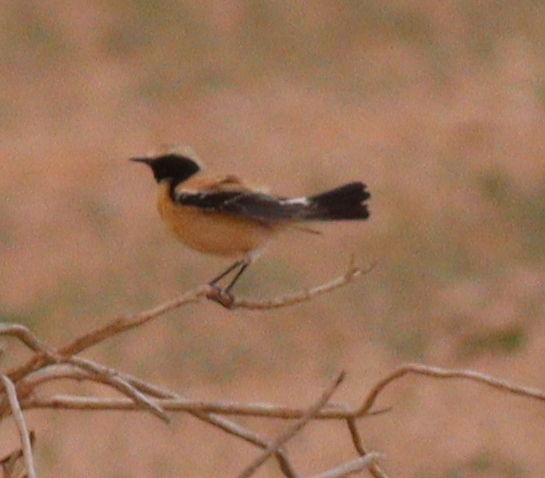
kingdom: Animalia
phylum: Chordata
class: Aves
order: Passeriformes
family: Muscicapidae
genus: Oenanthe
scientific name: Oenanthe deserti
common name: Desert wheatear
